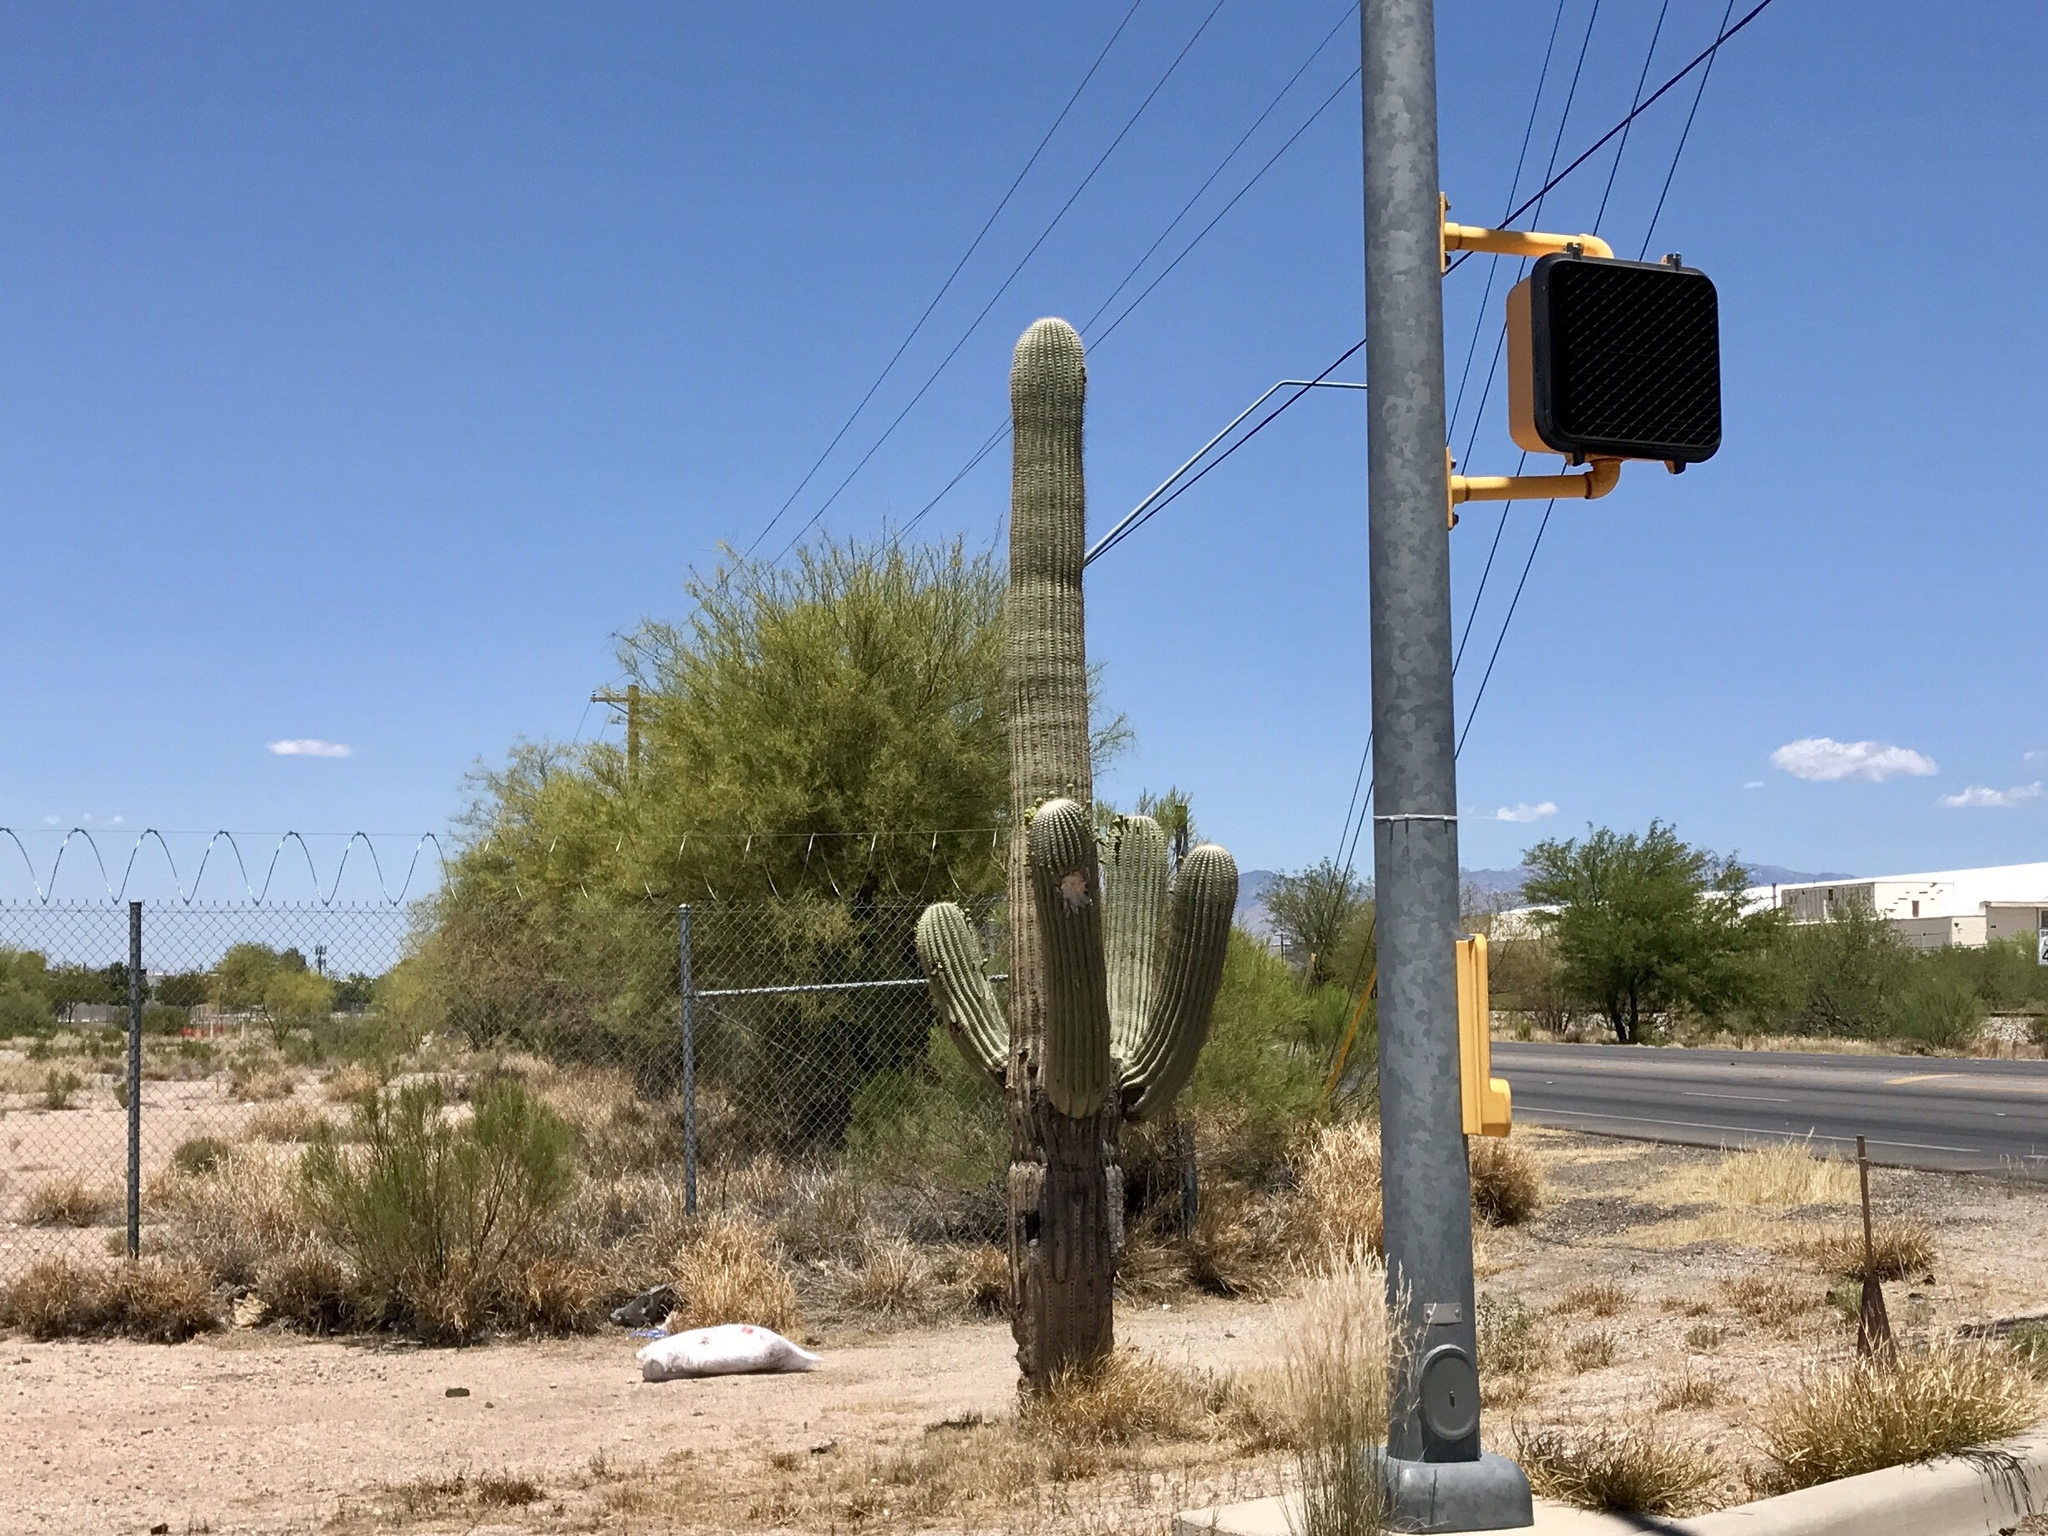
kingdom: Plantae
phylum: Tracheophyta
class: Magnoliopsida
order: Caryophyllales
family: Cactaceae
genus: Carnegiea
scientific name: Carnegiea gigantea
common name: Saguaro
